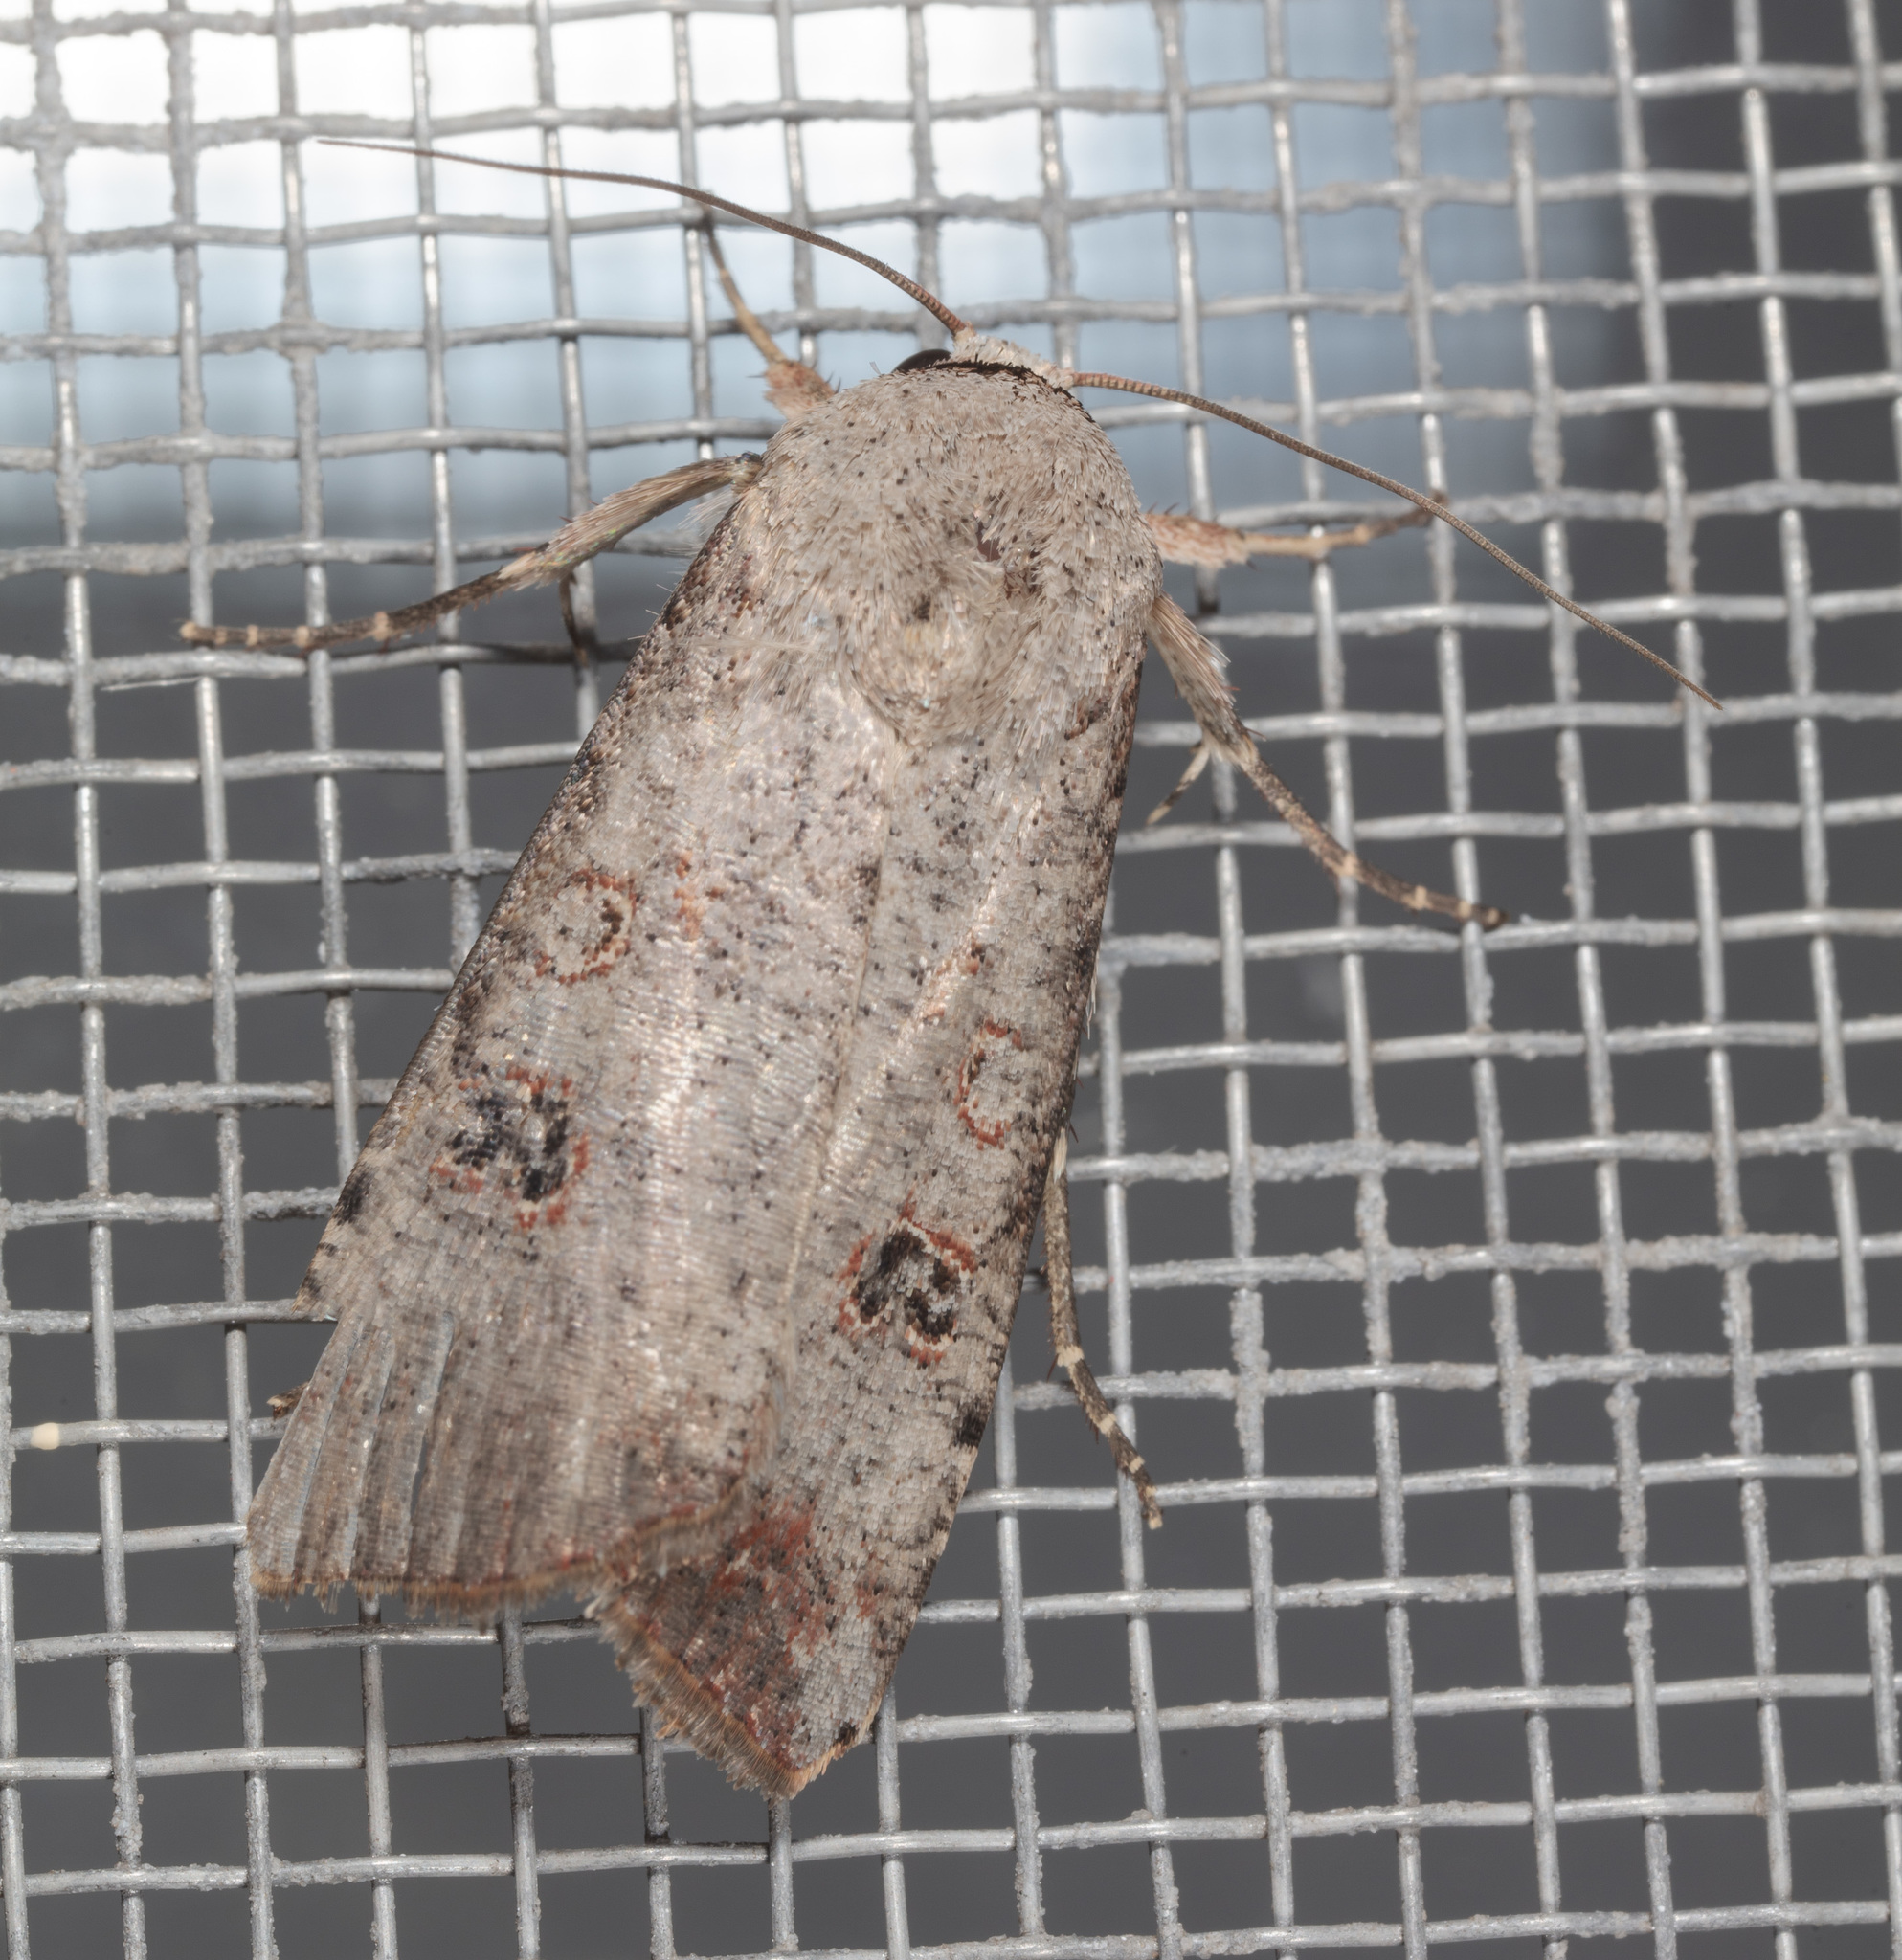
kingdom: Animalia
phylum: Arthropoda
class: Insecta
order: Lepidoptera
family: Noctuidae
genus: Anicla
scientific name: Anicla infecta
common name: Green cutworm
